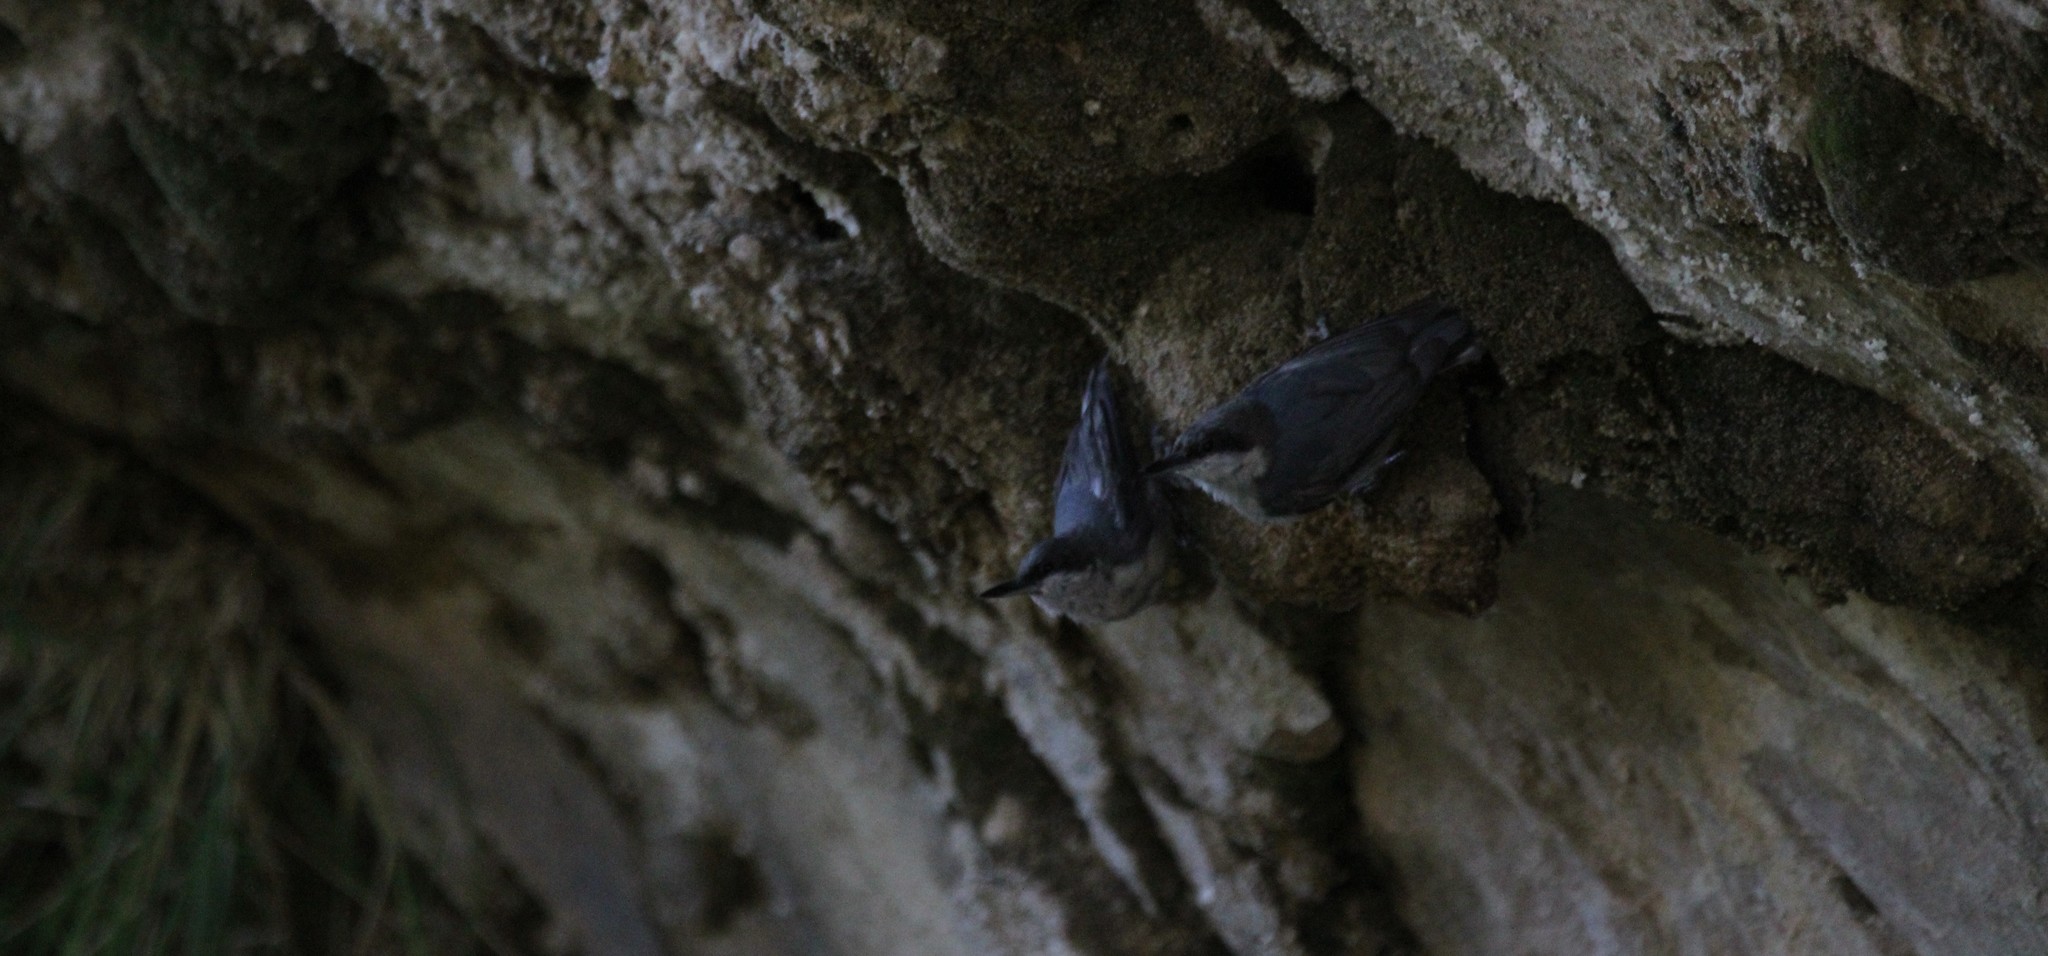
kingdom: Animalia
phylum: Chordata
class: Aves
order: Passeriformes
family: Sittidae
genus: Sitta
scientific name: Sitta pygmaea
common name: Pygmy nuthatch
